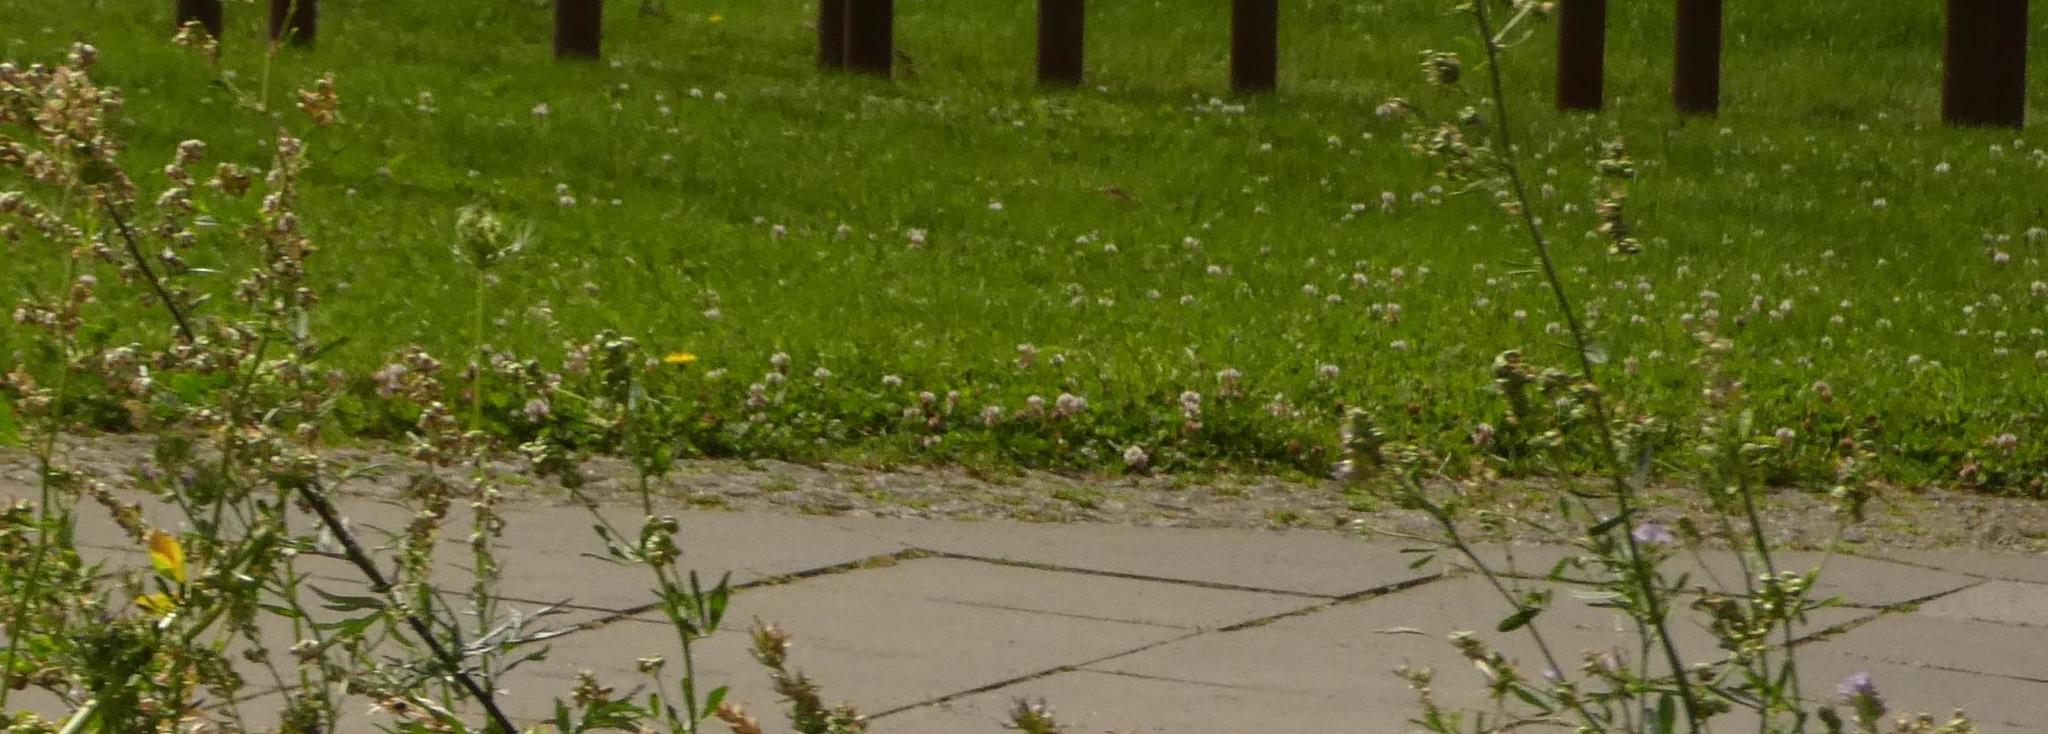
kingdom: Plantae
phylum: Tracheophyta
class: Magnoliopsida
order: Fabales
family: Fabaceae
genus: Trifolium
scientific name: Trifolium repens
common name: White clover
